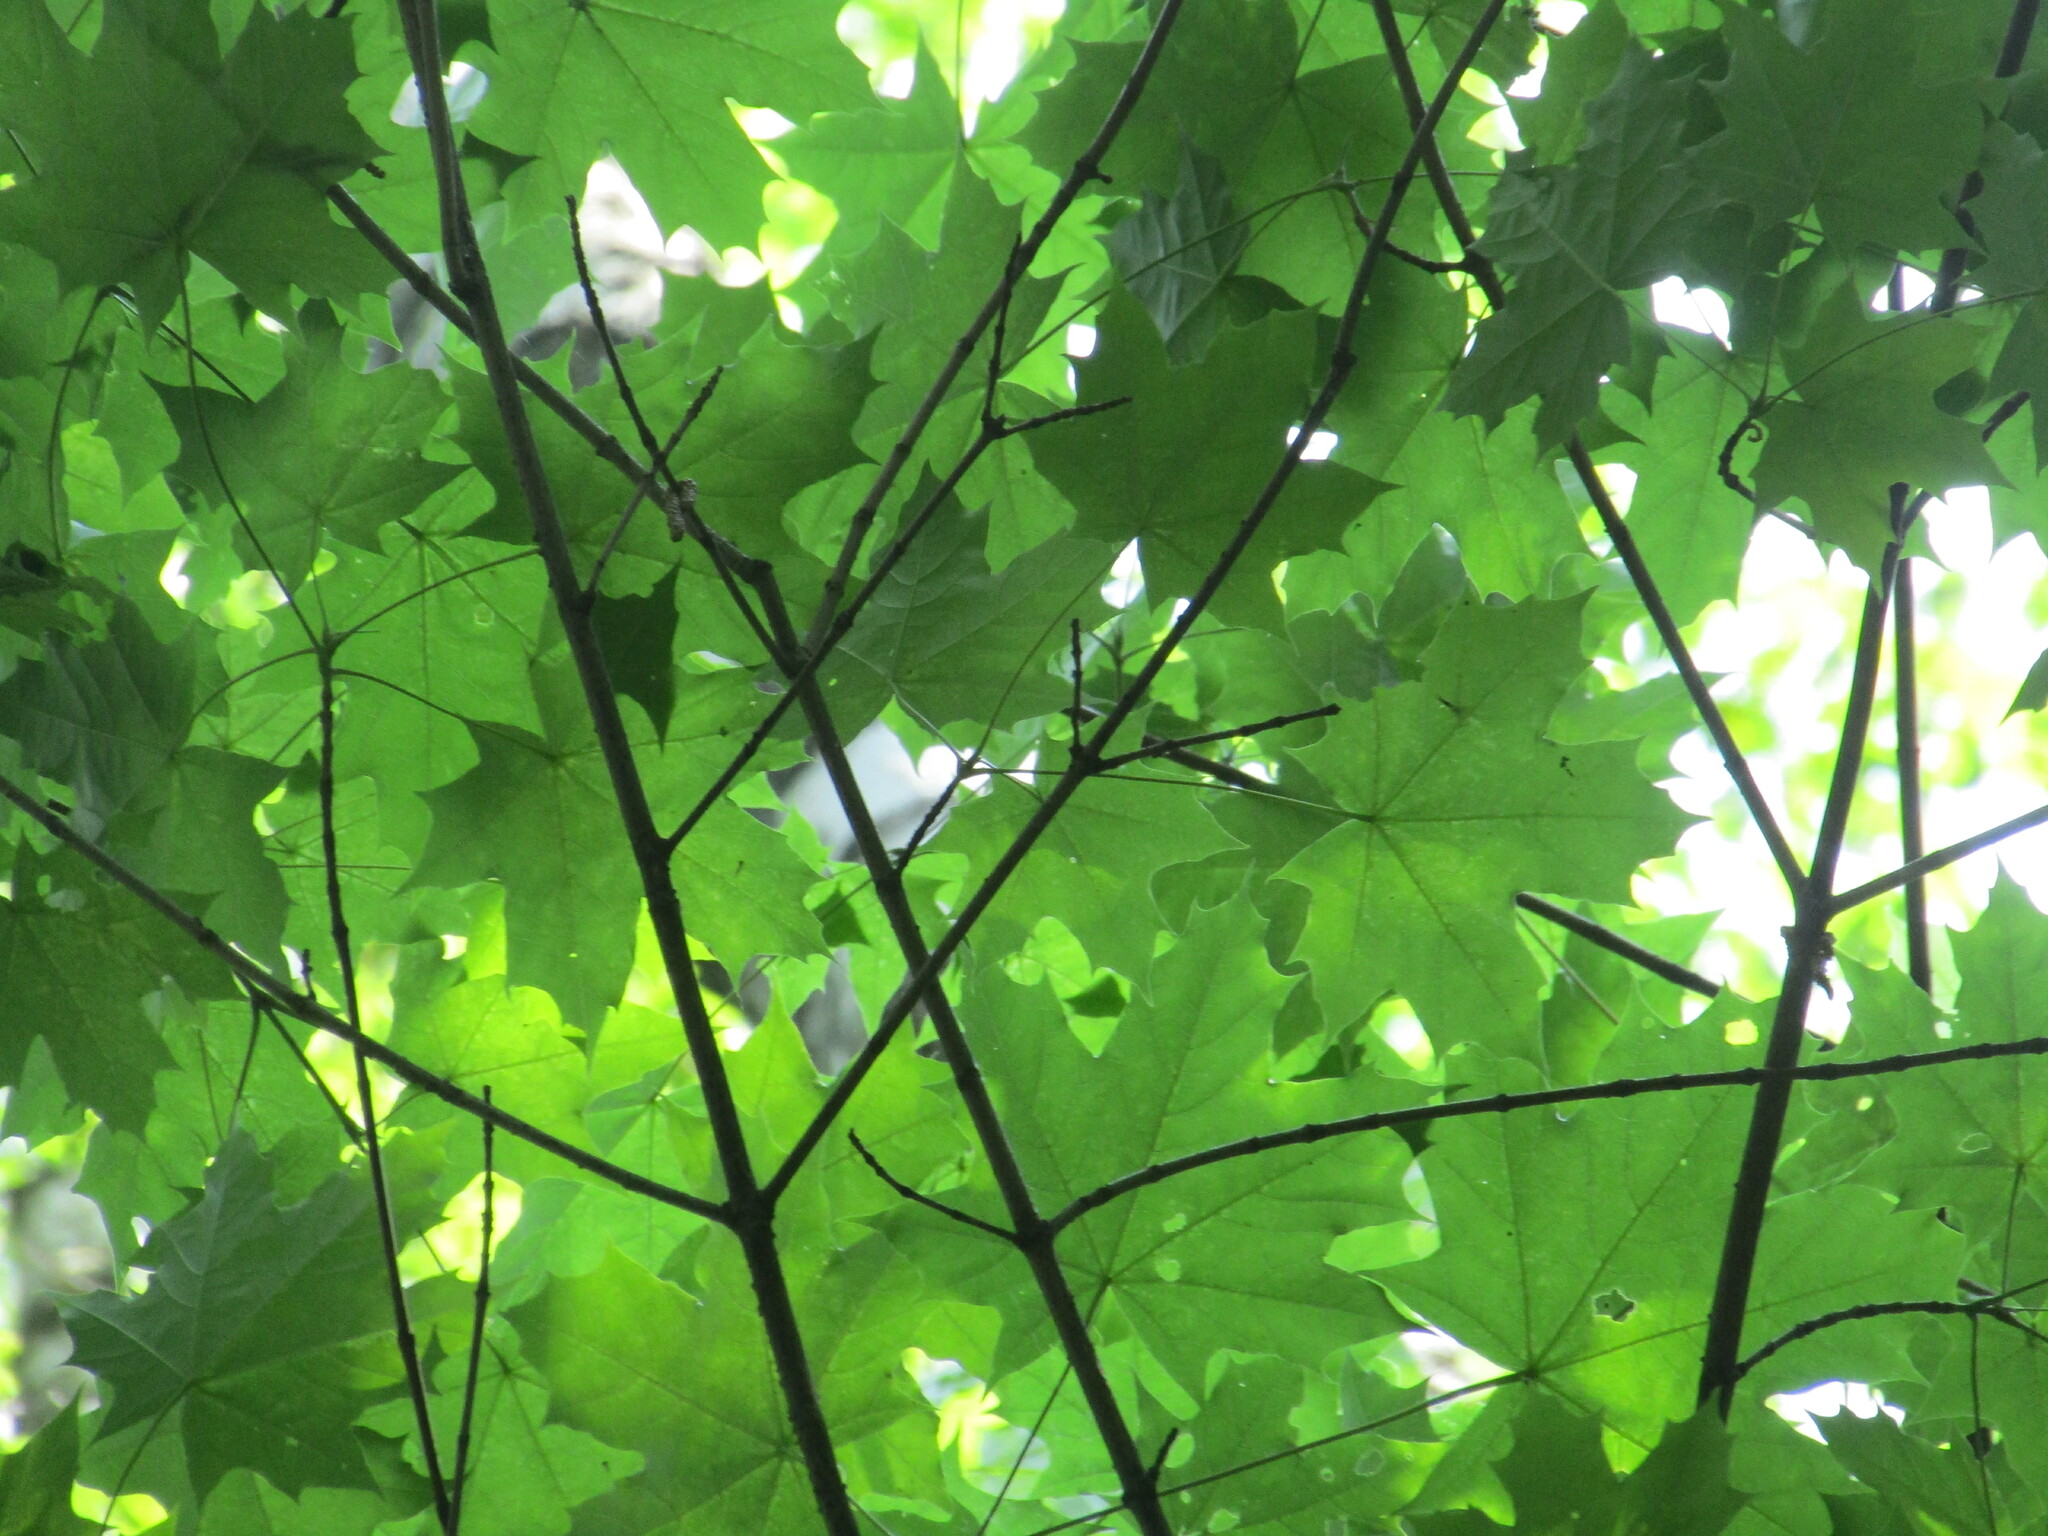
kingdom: Plantae
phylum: Tracheophyta
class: Magnoliopsida
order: Sapindales
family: Sapindaceae
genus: Acer
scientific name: Acer platanoides
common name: Norway maple
